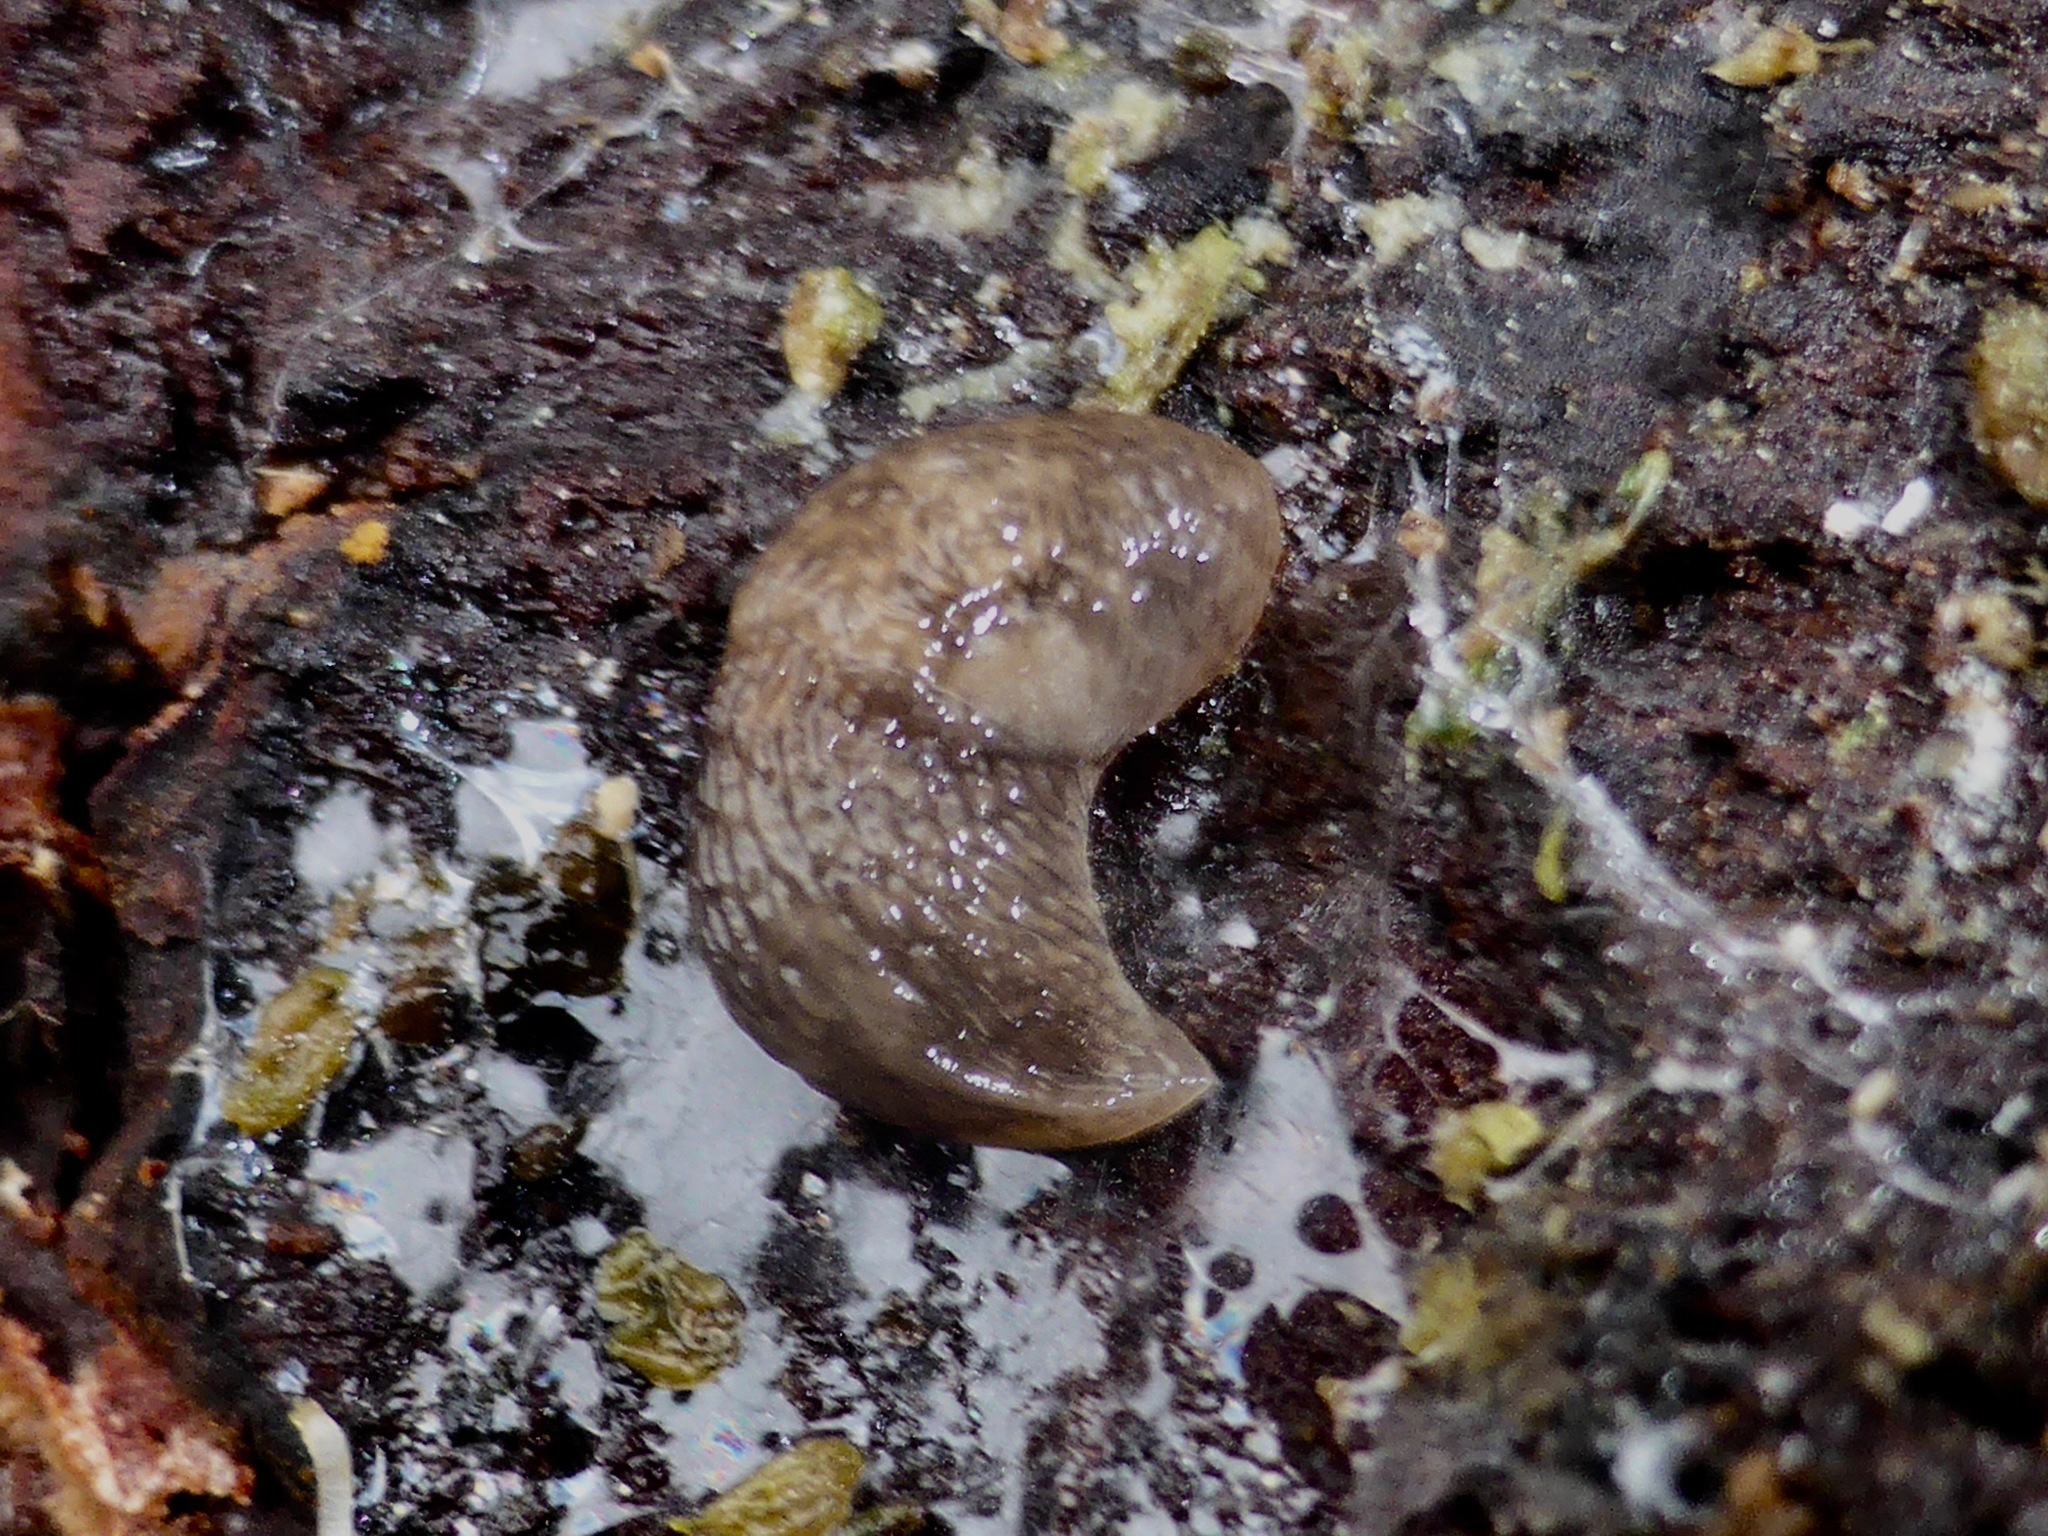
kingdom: Animalia
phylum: Mollusca
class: Gastropoda
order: Stylommatophora
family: Agriolimacidae
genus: Deroceras
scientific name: Deroceras reticulatum
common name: Gray field slug
